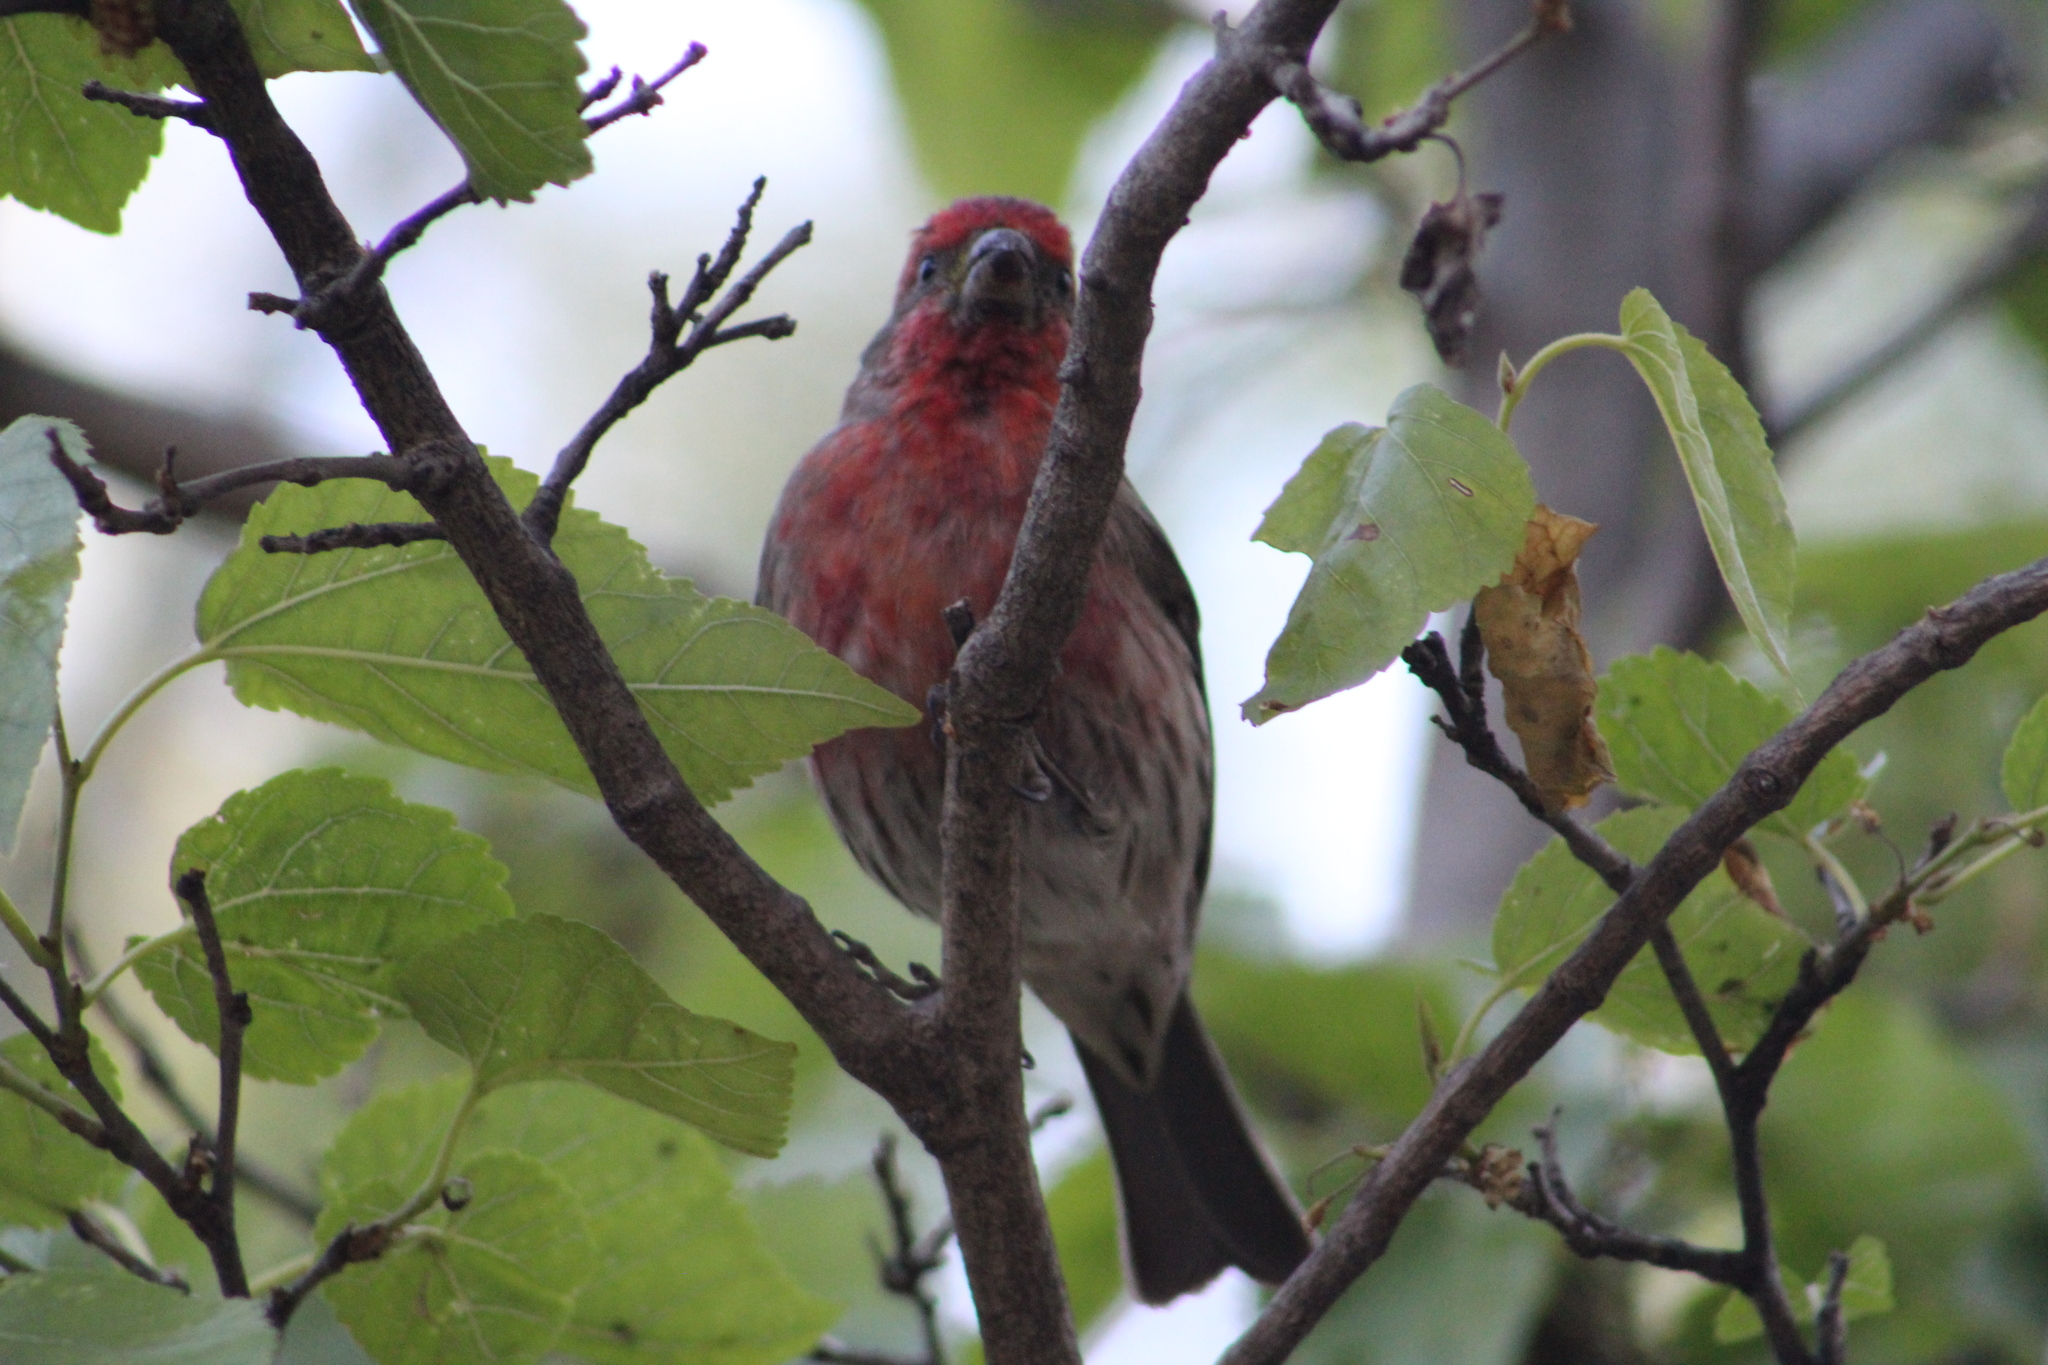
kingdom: Animalia
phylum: Chordata
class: Aves
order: Passeriformes
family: Fringillidae
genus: Haemorhous
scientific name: Haemorhous mexicanus
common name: House finch
